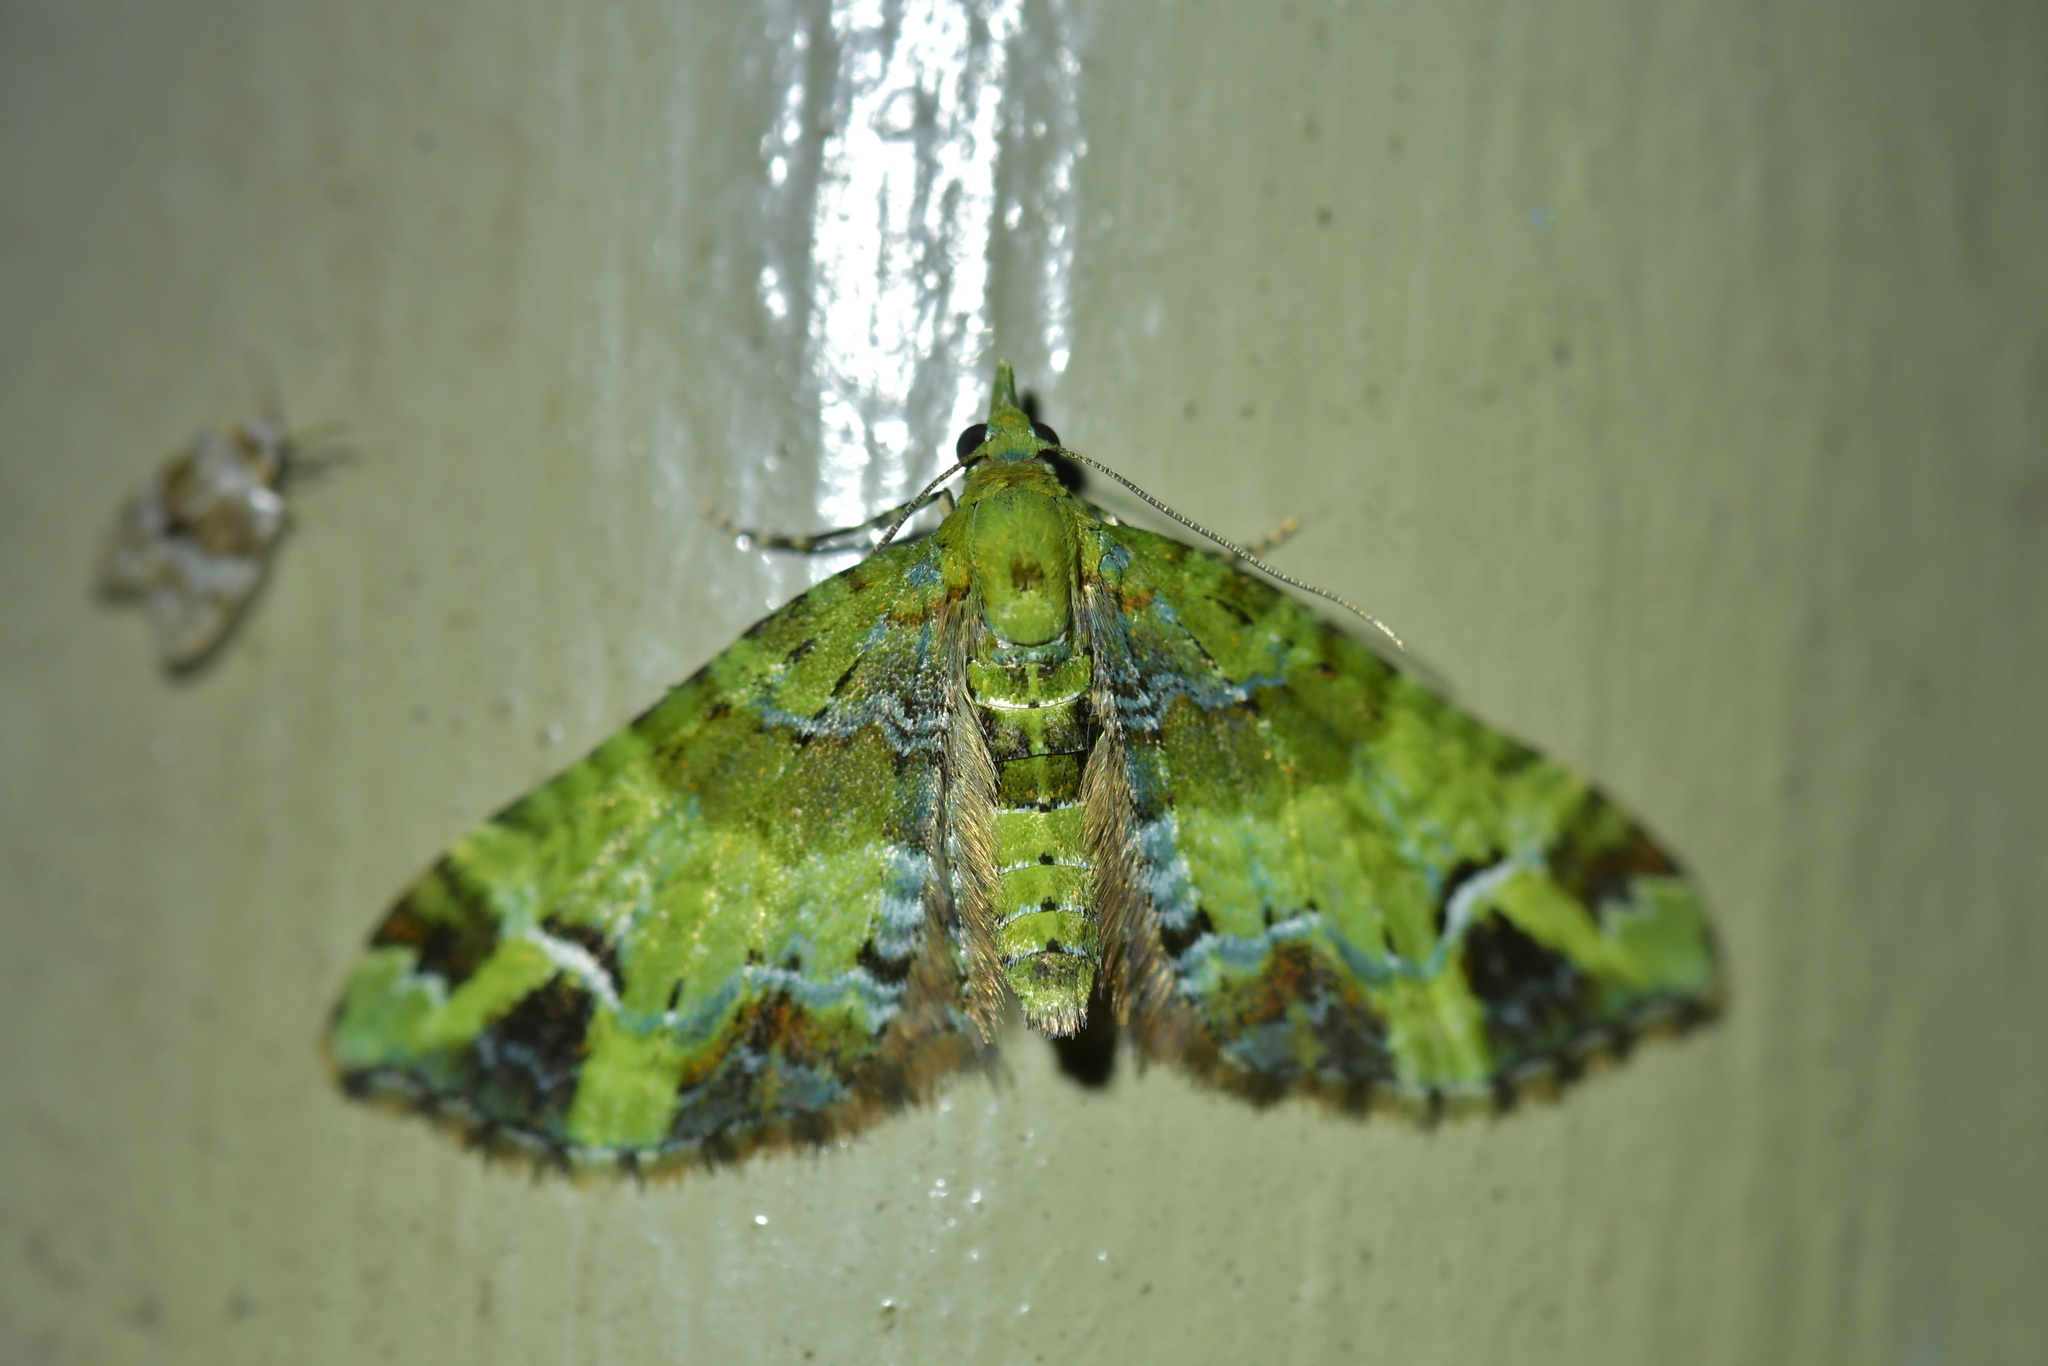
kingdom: Animalia
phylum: Arthropoda
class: Insecta
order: Lepidoptera
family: Geometridae
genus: Pasiphila
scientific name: Pasiphila malachita
